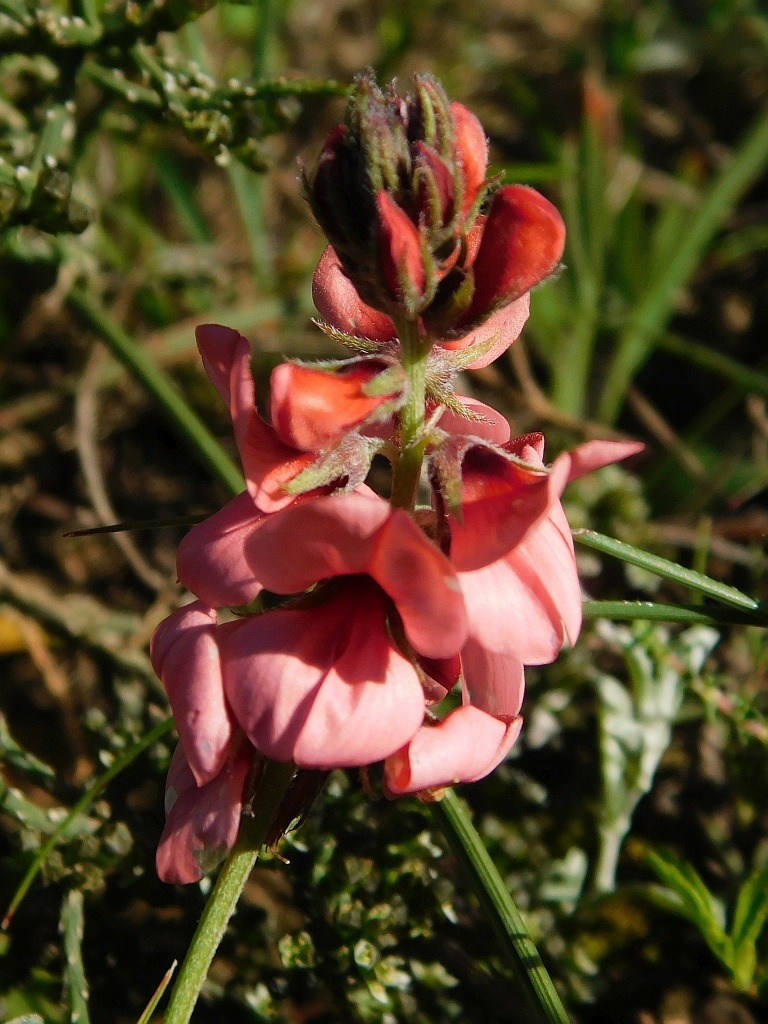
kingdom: Plantae
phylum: Tracheophyta
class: Magnoliopsida
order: Fabales
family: Fabaceae
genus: Indigofera
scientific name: Indigofera digitata
